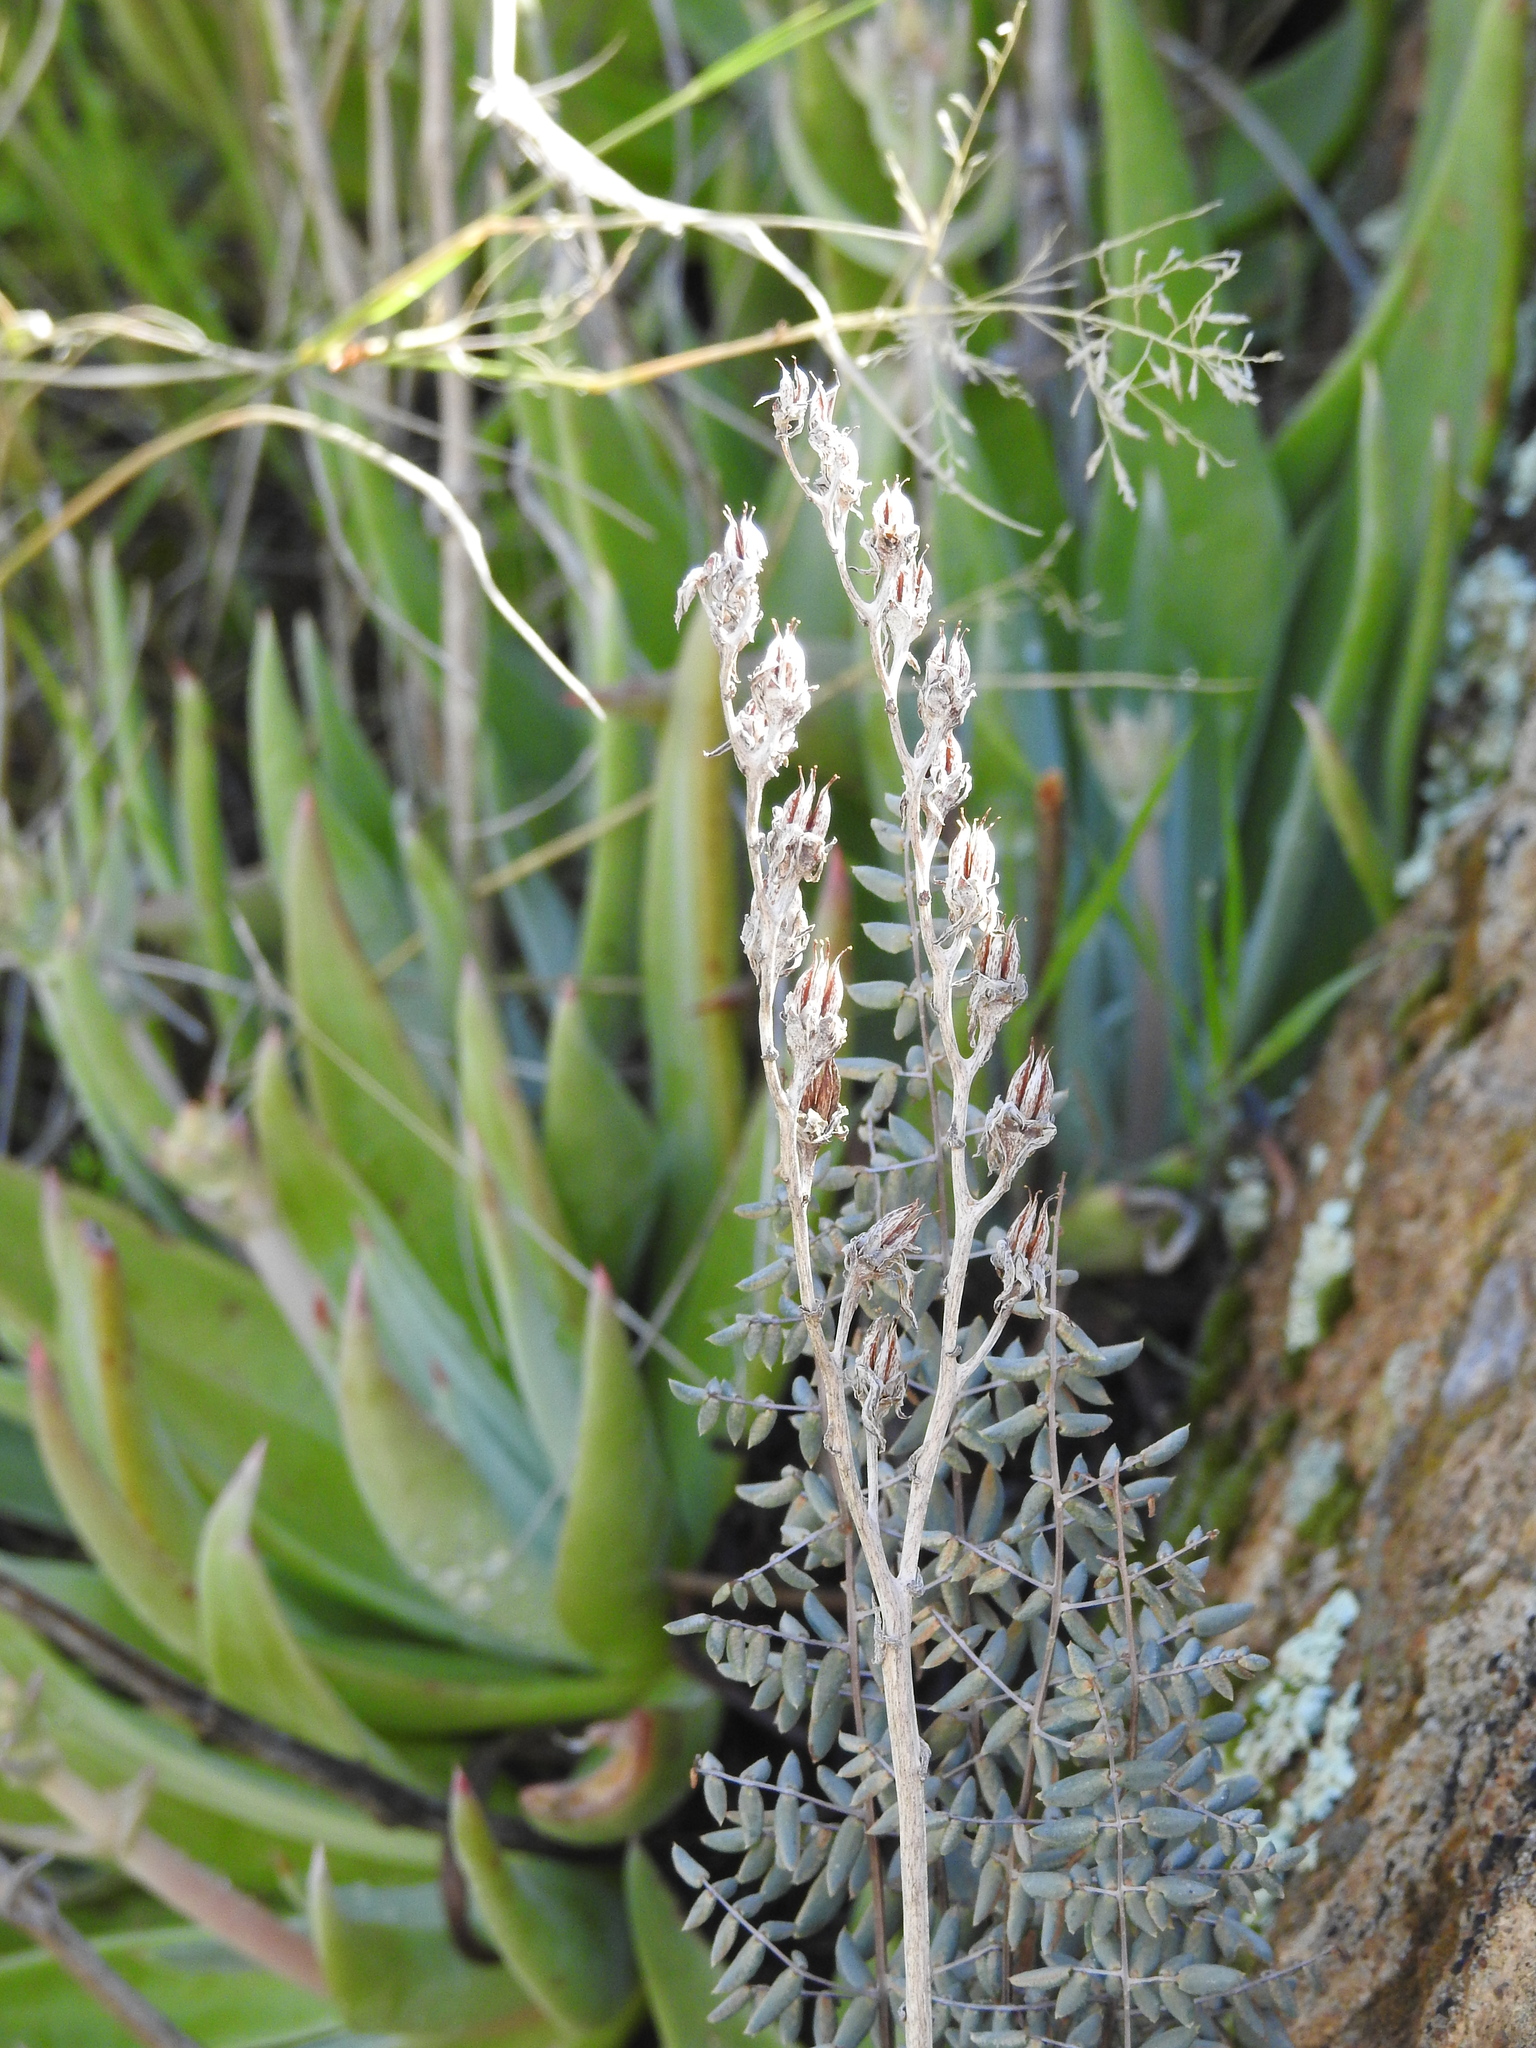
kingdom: Plantae
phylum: Tracheophyta
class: Magnoliopsida
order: Saxifragales
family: Crassulaceae
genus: Dudleya
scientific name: Dudleya collomiae
